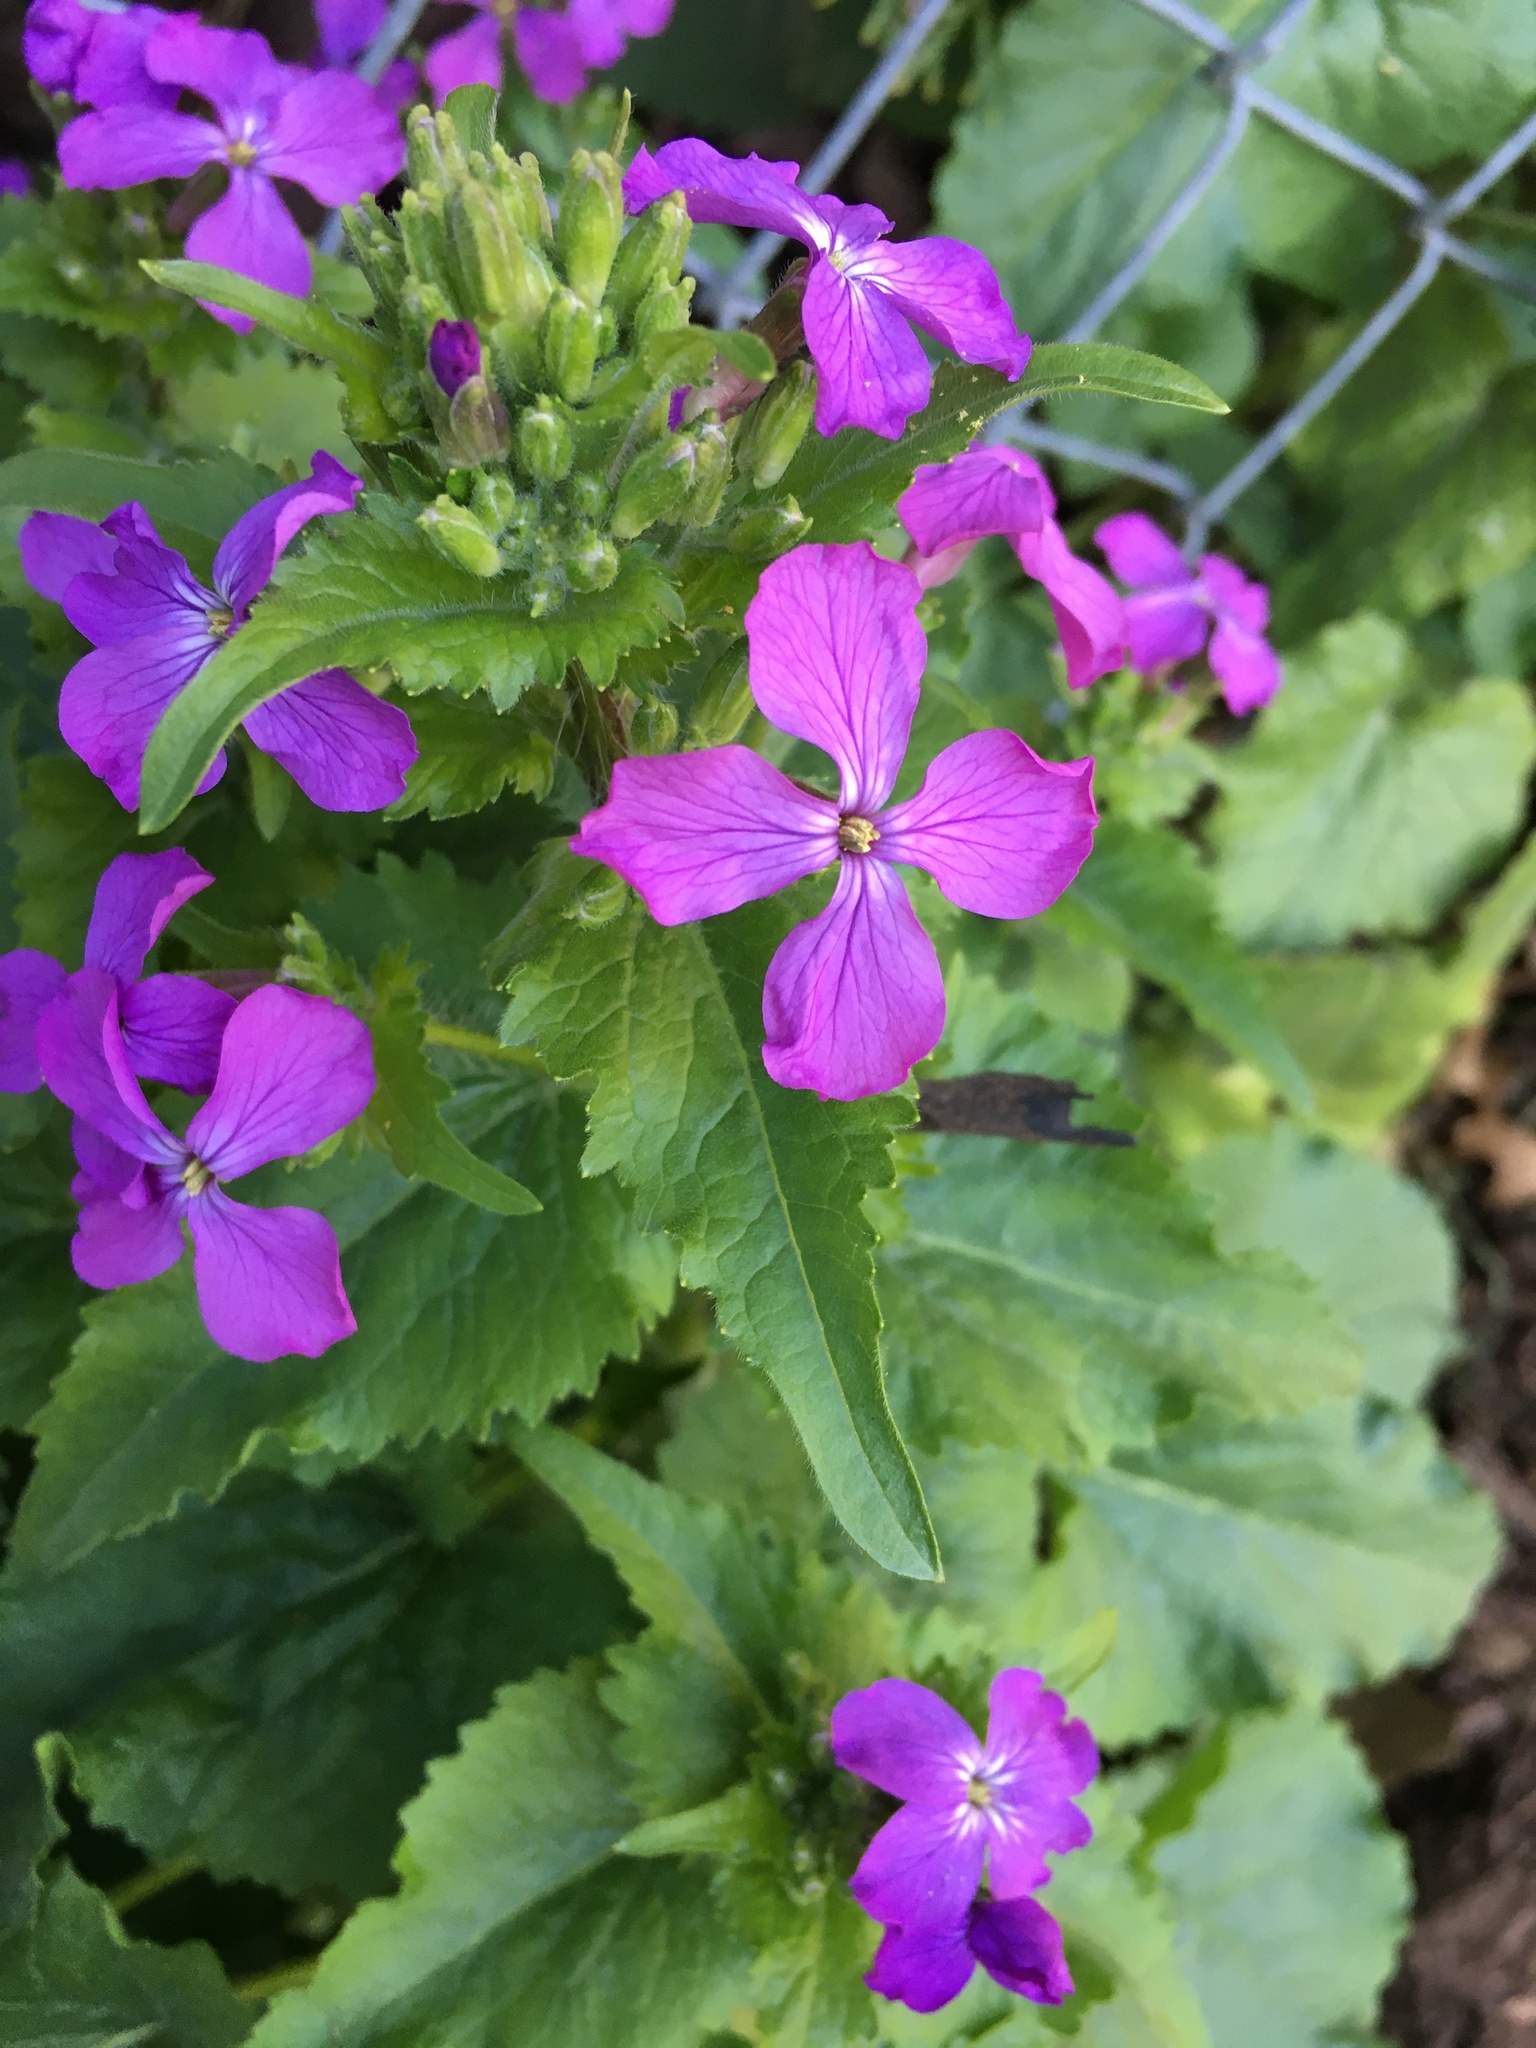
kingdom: Plantae
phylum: Tracheophyta
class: Magnoliopsida
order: Brassicales
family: Brassicaceae
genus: Lunaria
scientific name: Lunaria annua
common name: Honesty
